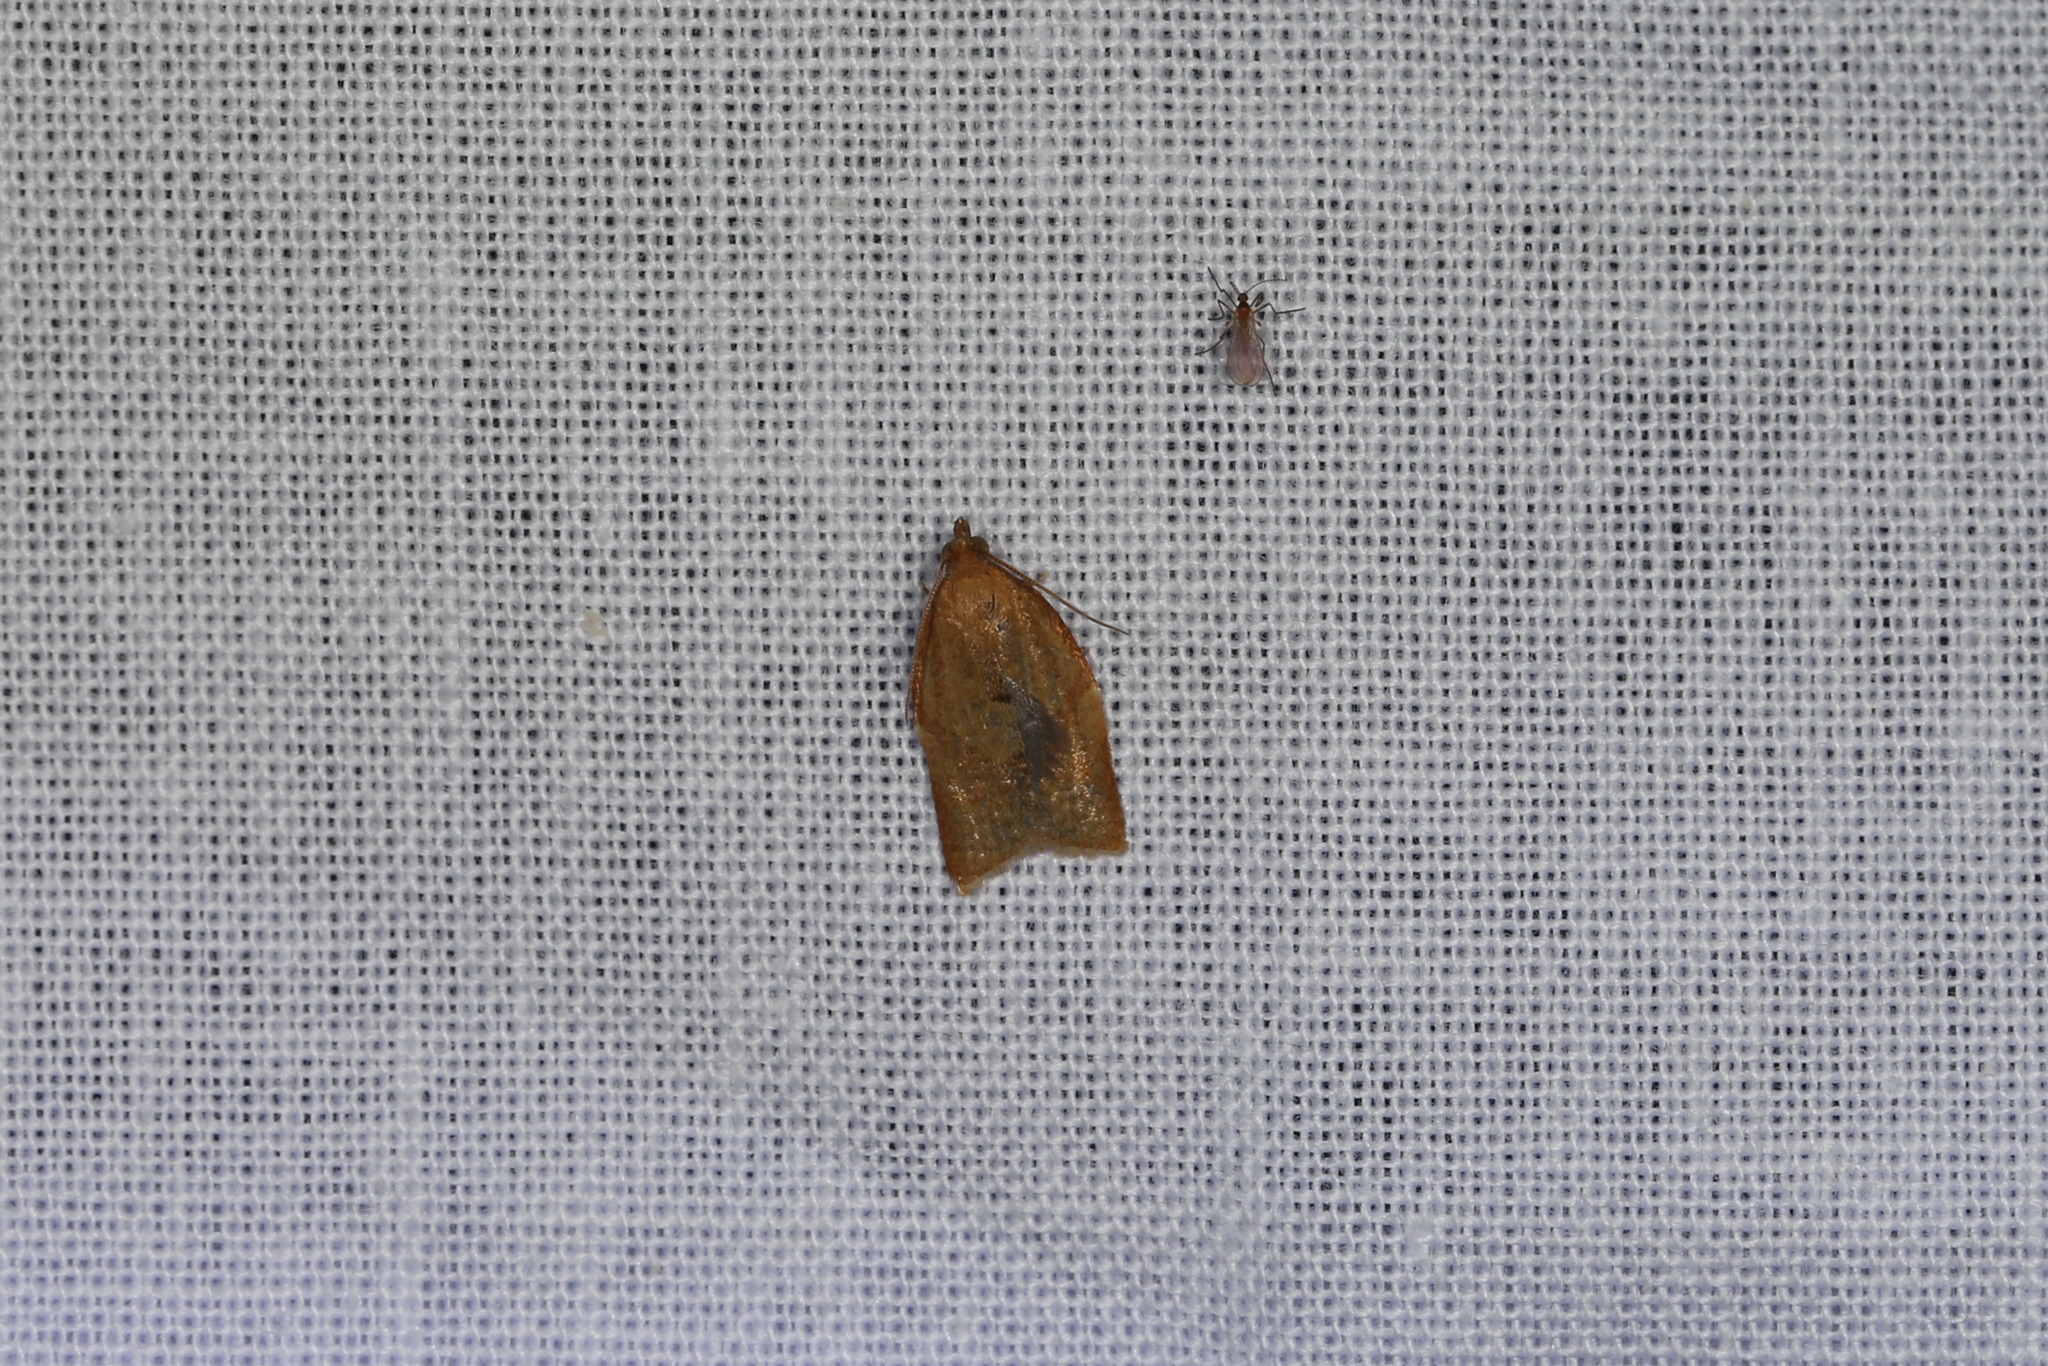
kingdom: Animalia
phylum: Arthropoda
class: Insecta
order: Lepidoptera
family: Tortricidae
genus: Clepsis
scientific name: Clepsis consimilana
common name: Privet tortrix
